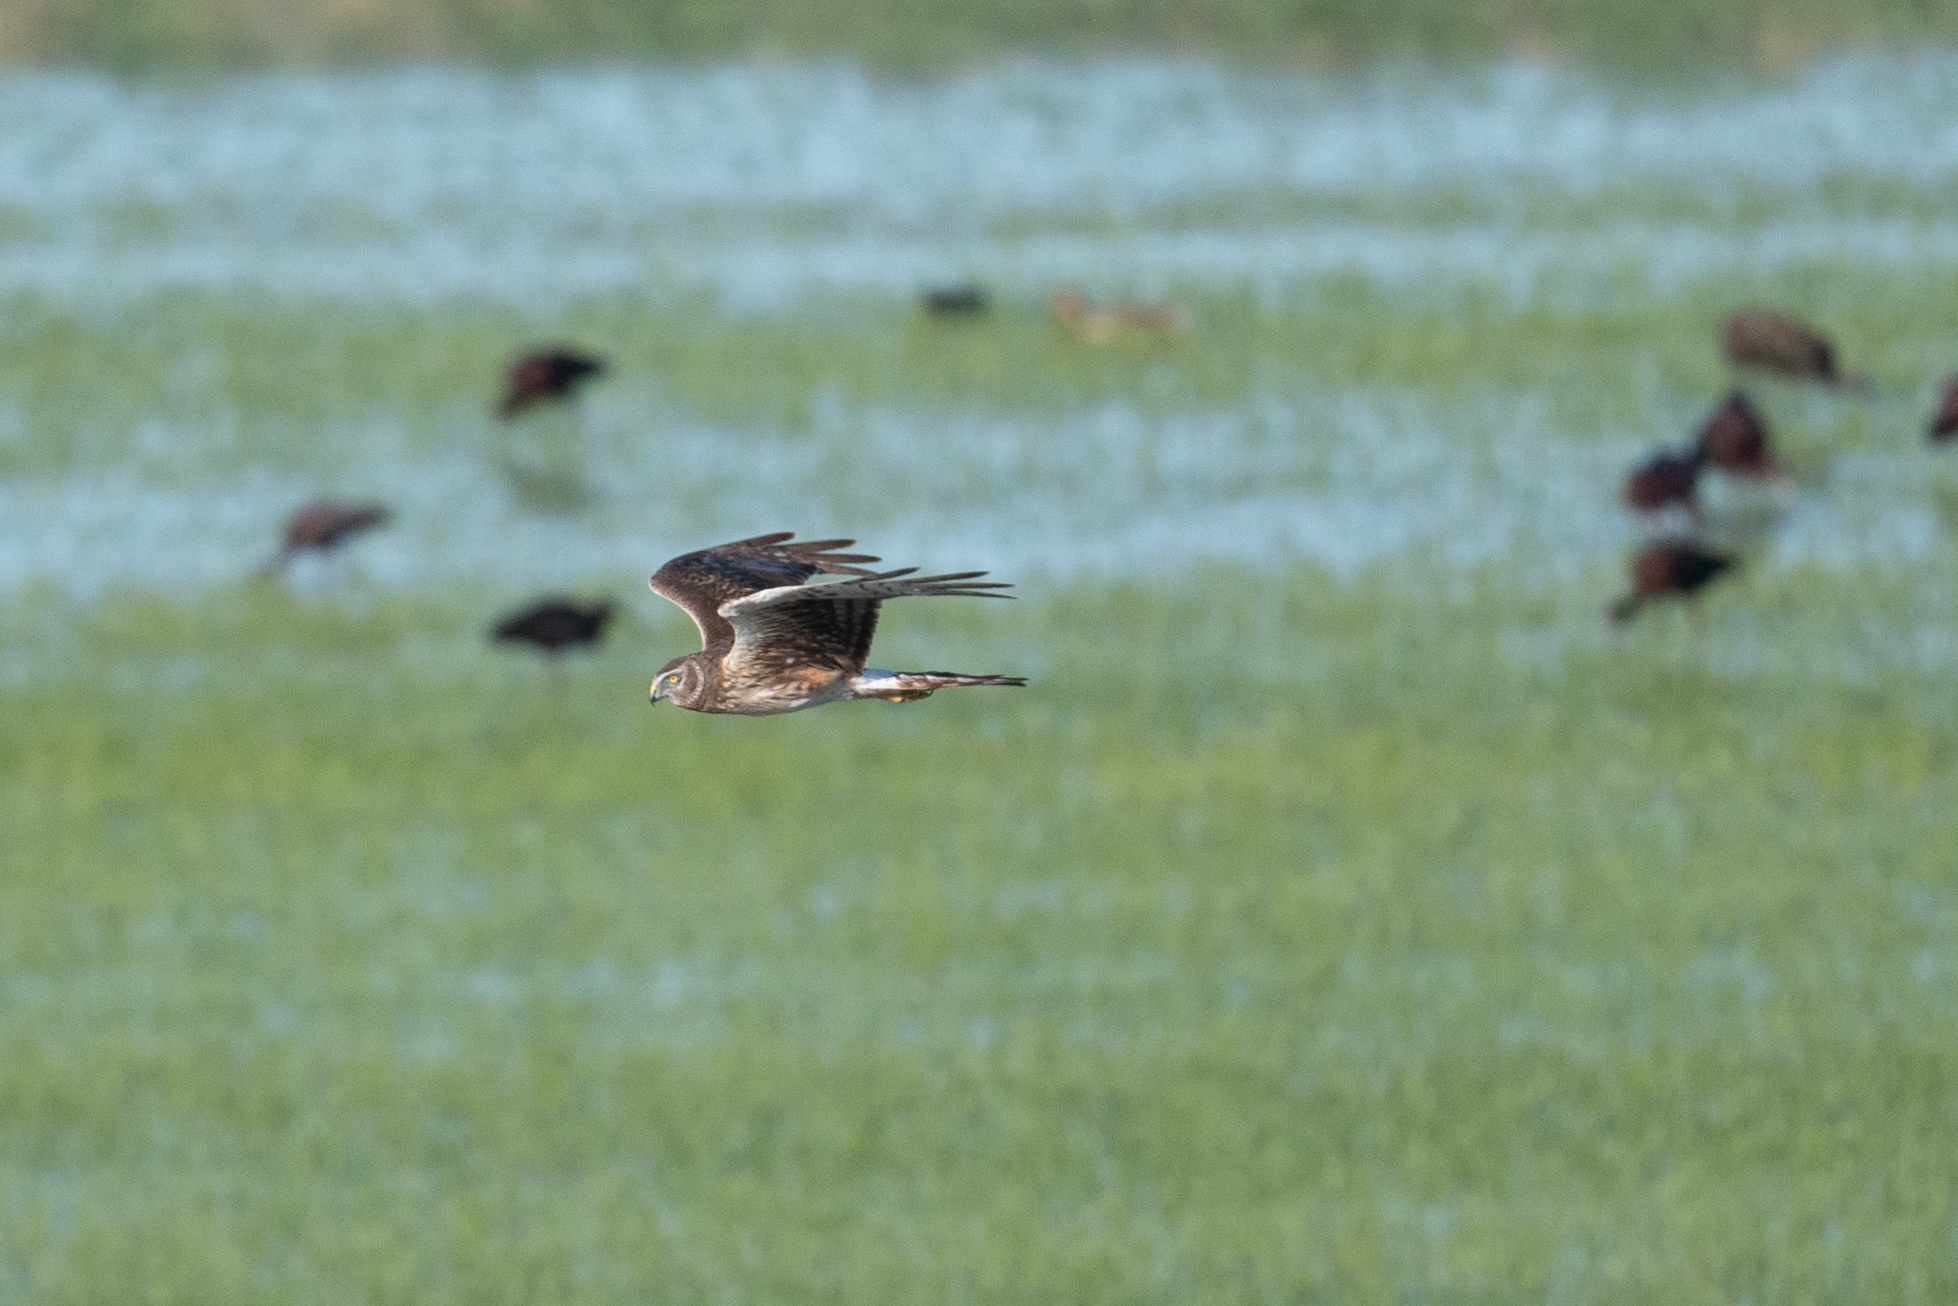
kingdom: Animalia
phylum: Chordata
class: Aves
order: Accipitriformes
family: Accipitridae
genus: Circus
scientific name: Circus cyaneus
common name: Hen harrier
